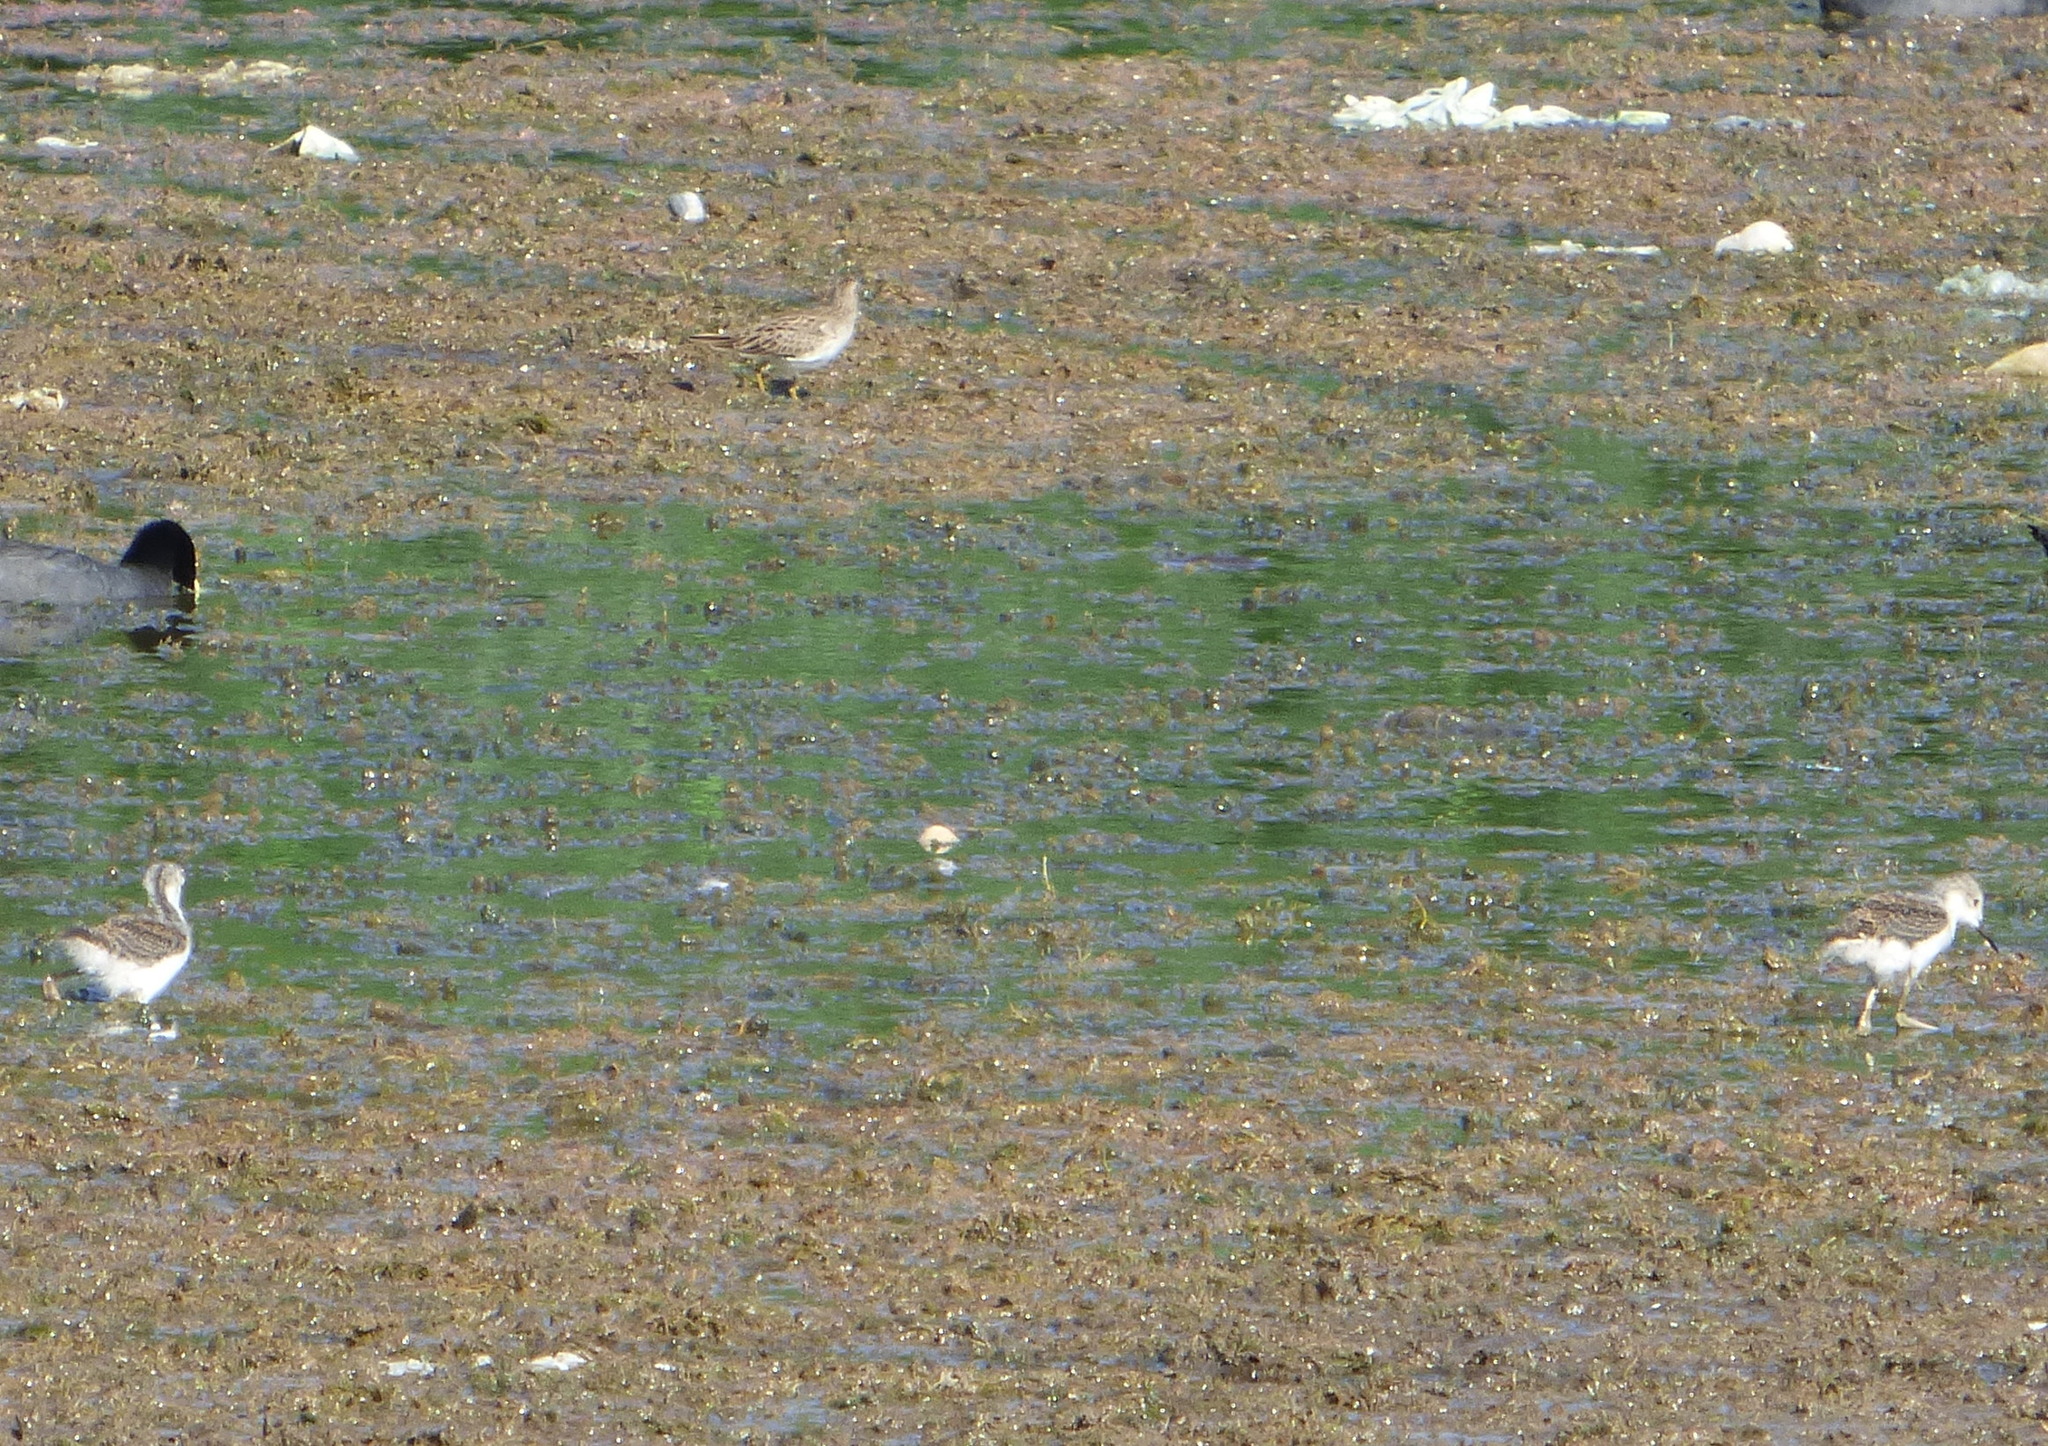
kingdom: Animalia
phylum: Chordata
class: Aves
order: Charadriiformes
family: Recurvirostridae
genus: Himantopus
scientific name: Himantopus mexicanus
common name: Black-necked stilt
